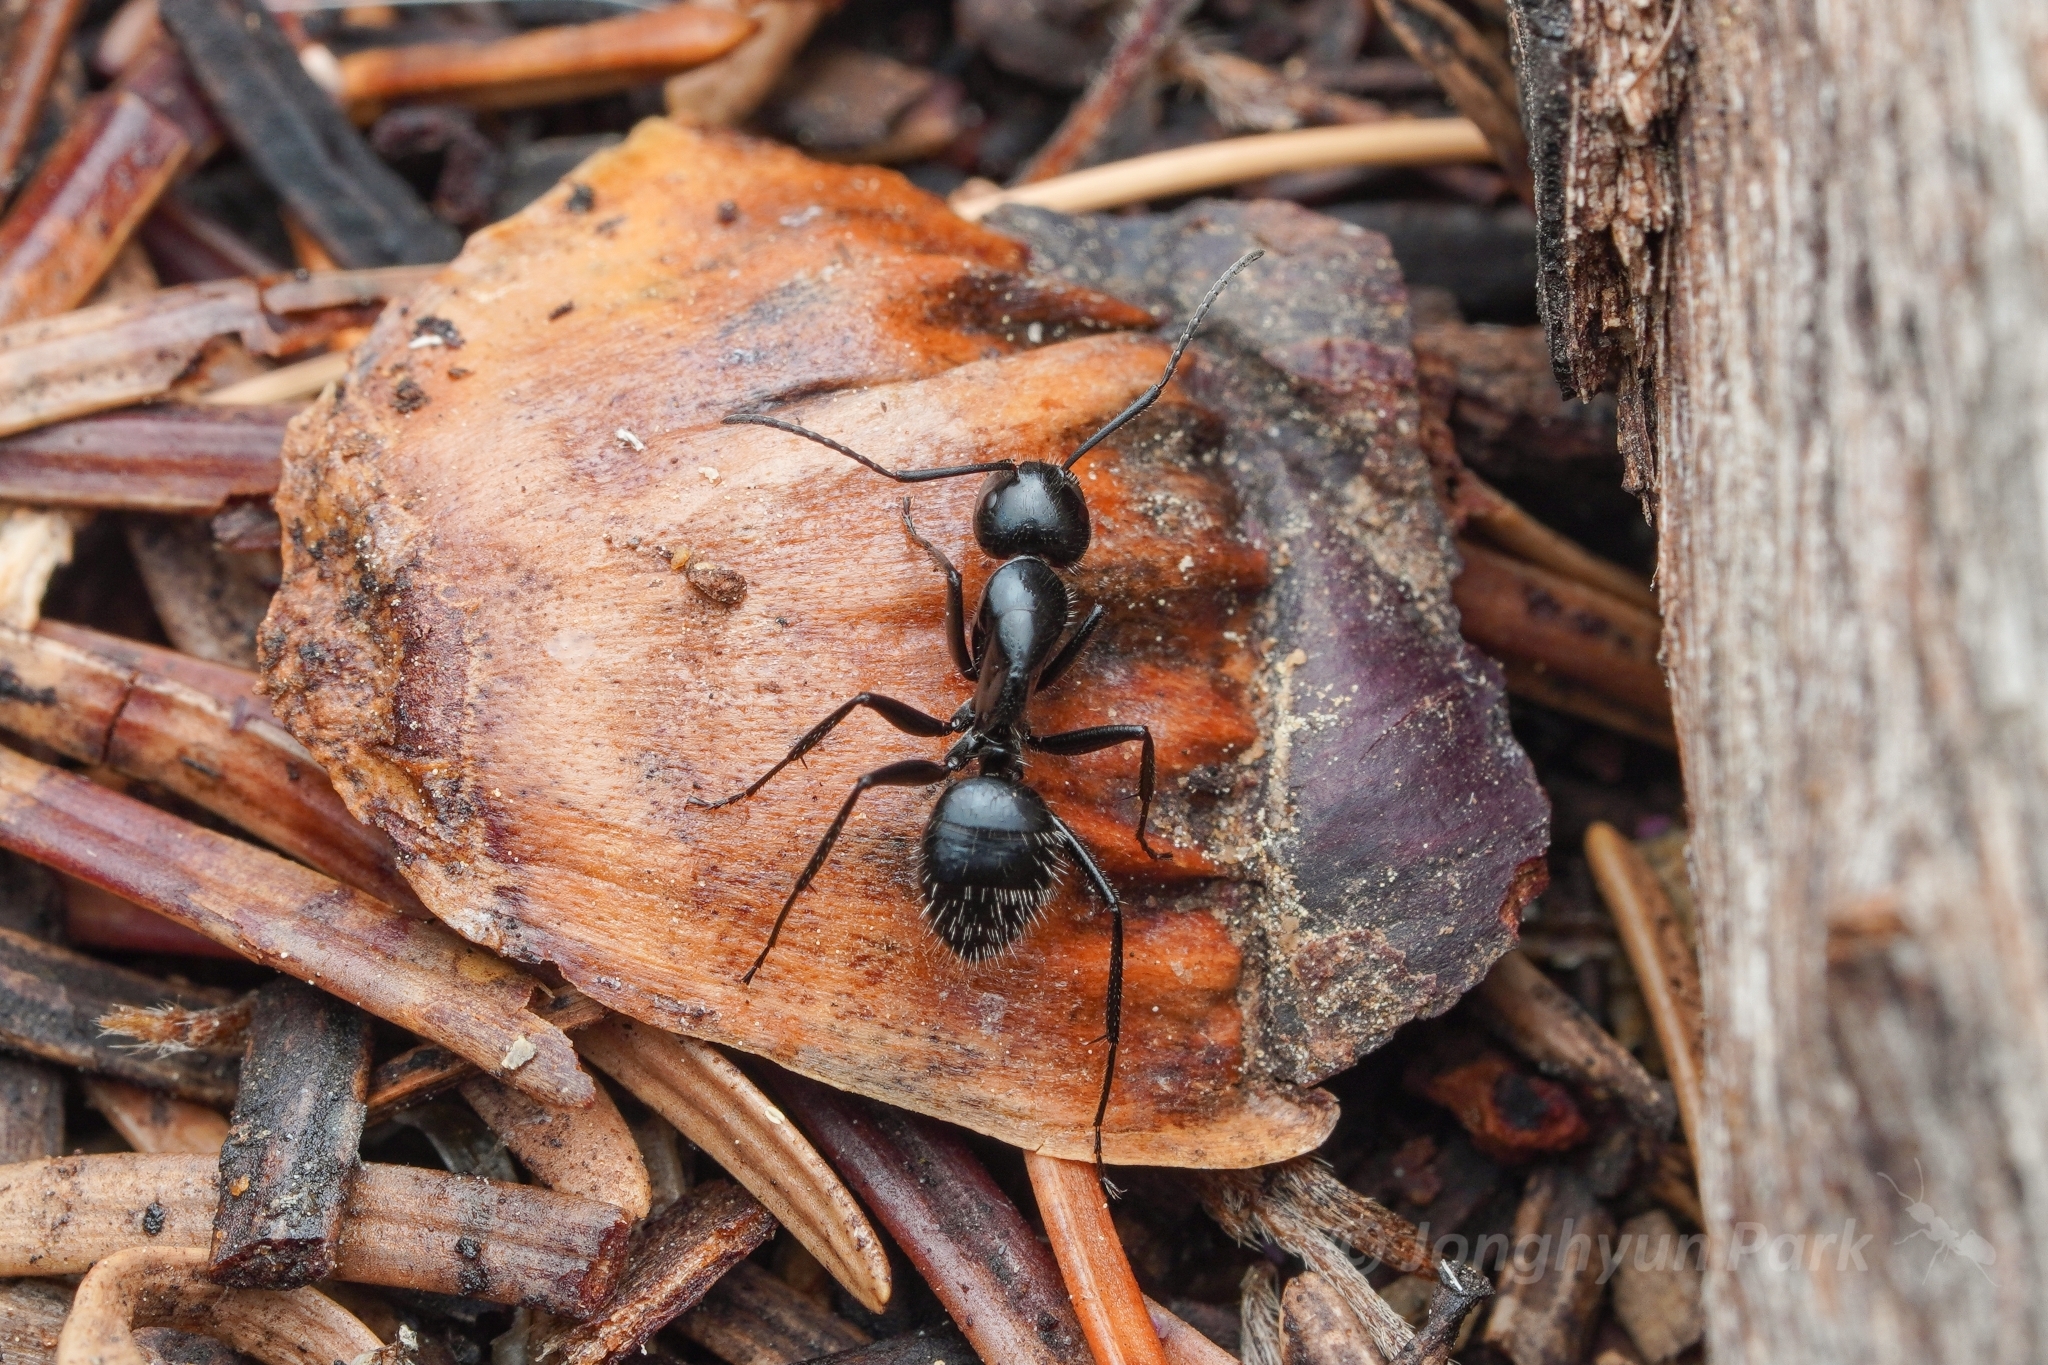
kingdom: Animalia
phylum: Arthropoda
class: Insecta
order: Hymenoptera
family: Formicidae
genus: Camponotus
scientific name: Camponotus
